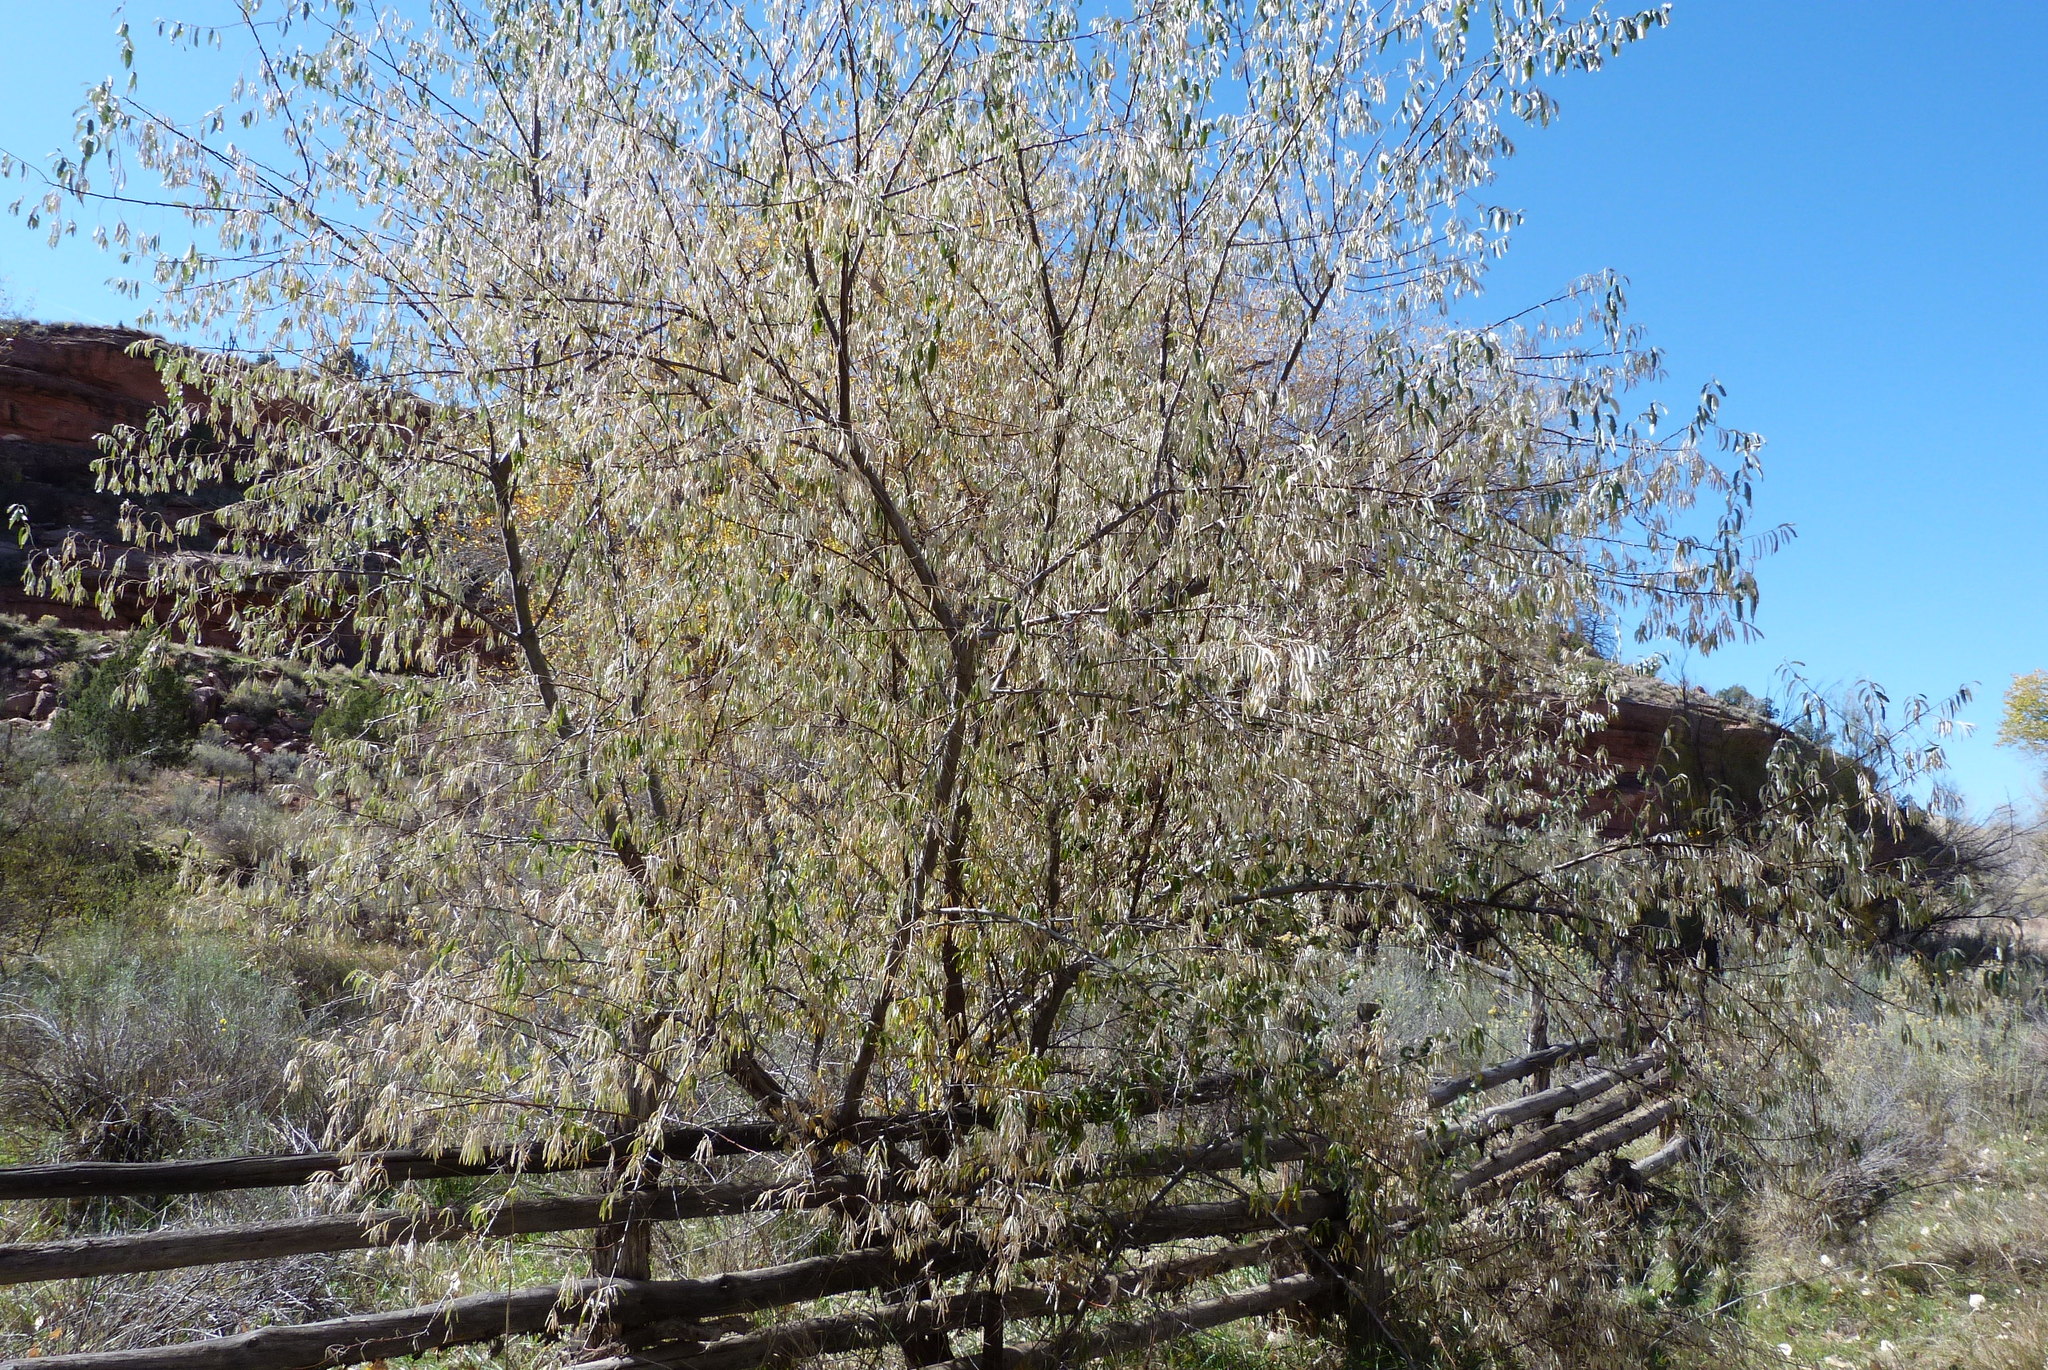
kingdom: Plantae
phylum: Tracheophyta
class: Magnoliopsida
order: Rosales
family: Elaeagnaceae
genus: Elaeagnus
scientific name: Elaeagnus angustifolia
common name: Russian olive
